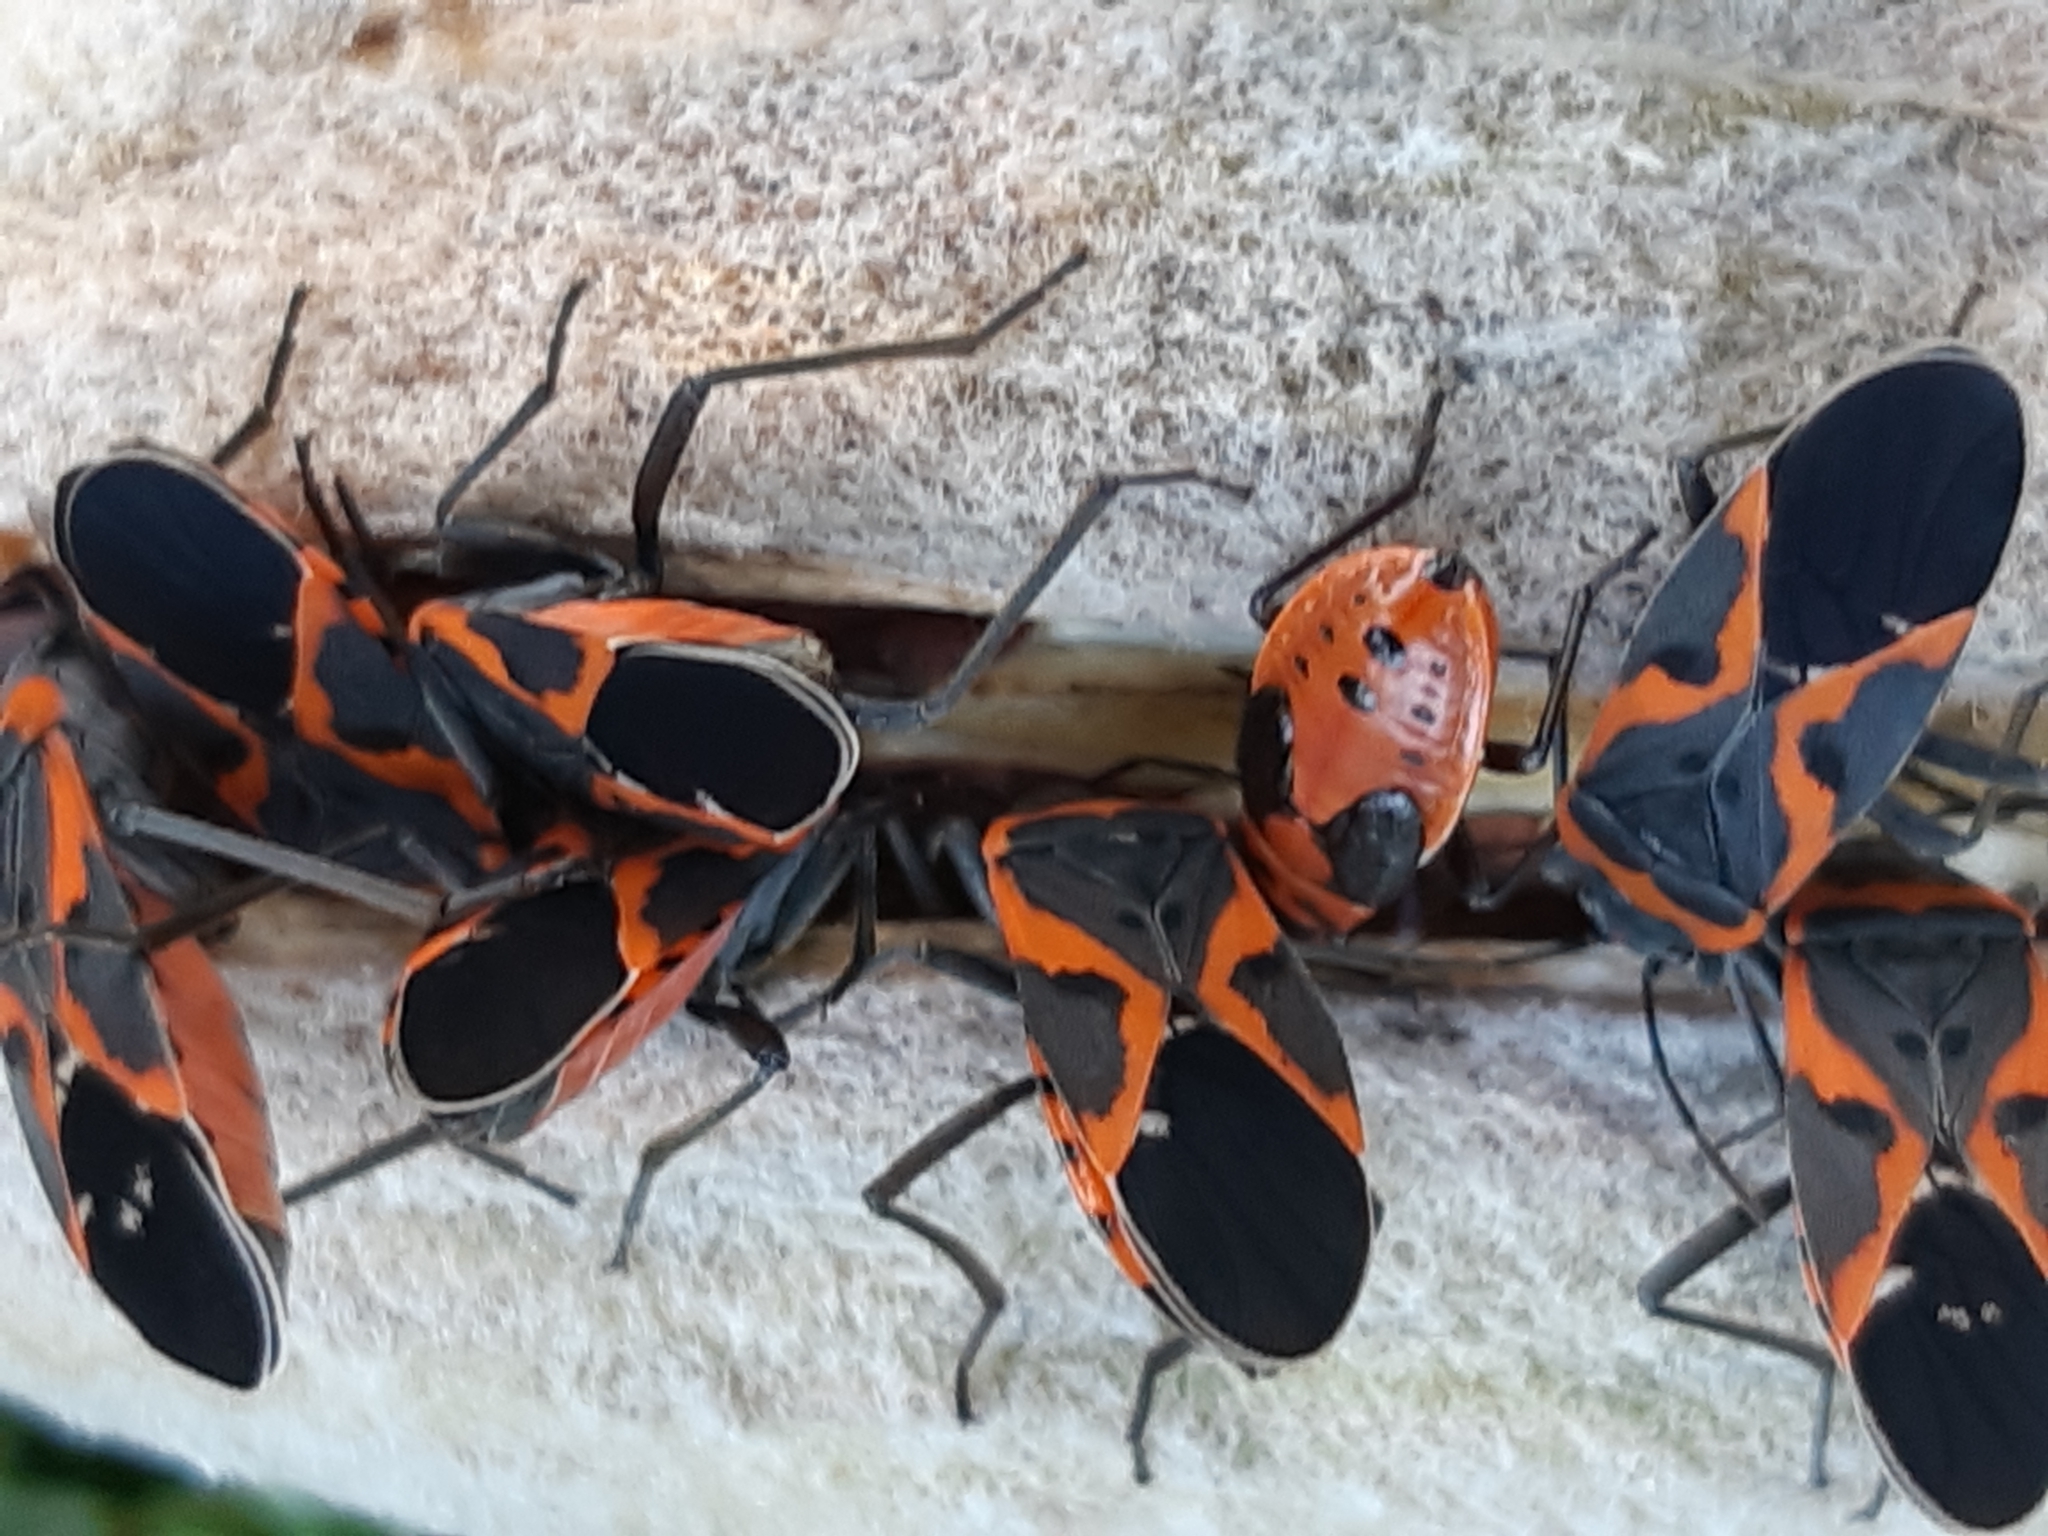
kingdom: Animalia
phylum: Arthropoda
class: Insecta
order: Hemiptera
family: Lygaeidae
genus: Lygaeus
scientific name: Lygaeus kalmii
